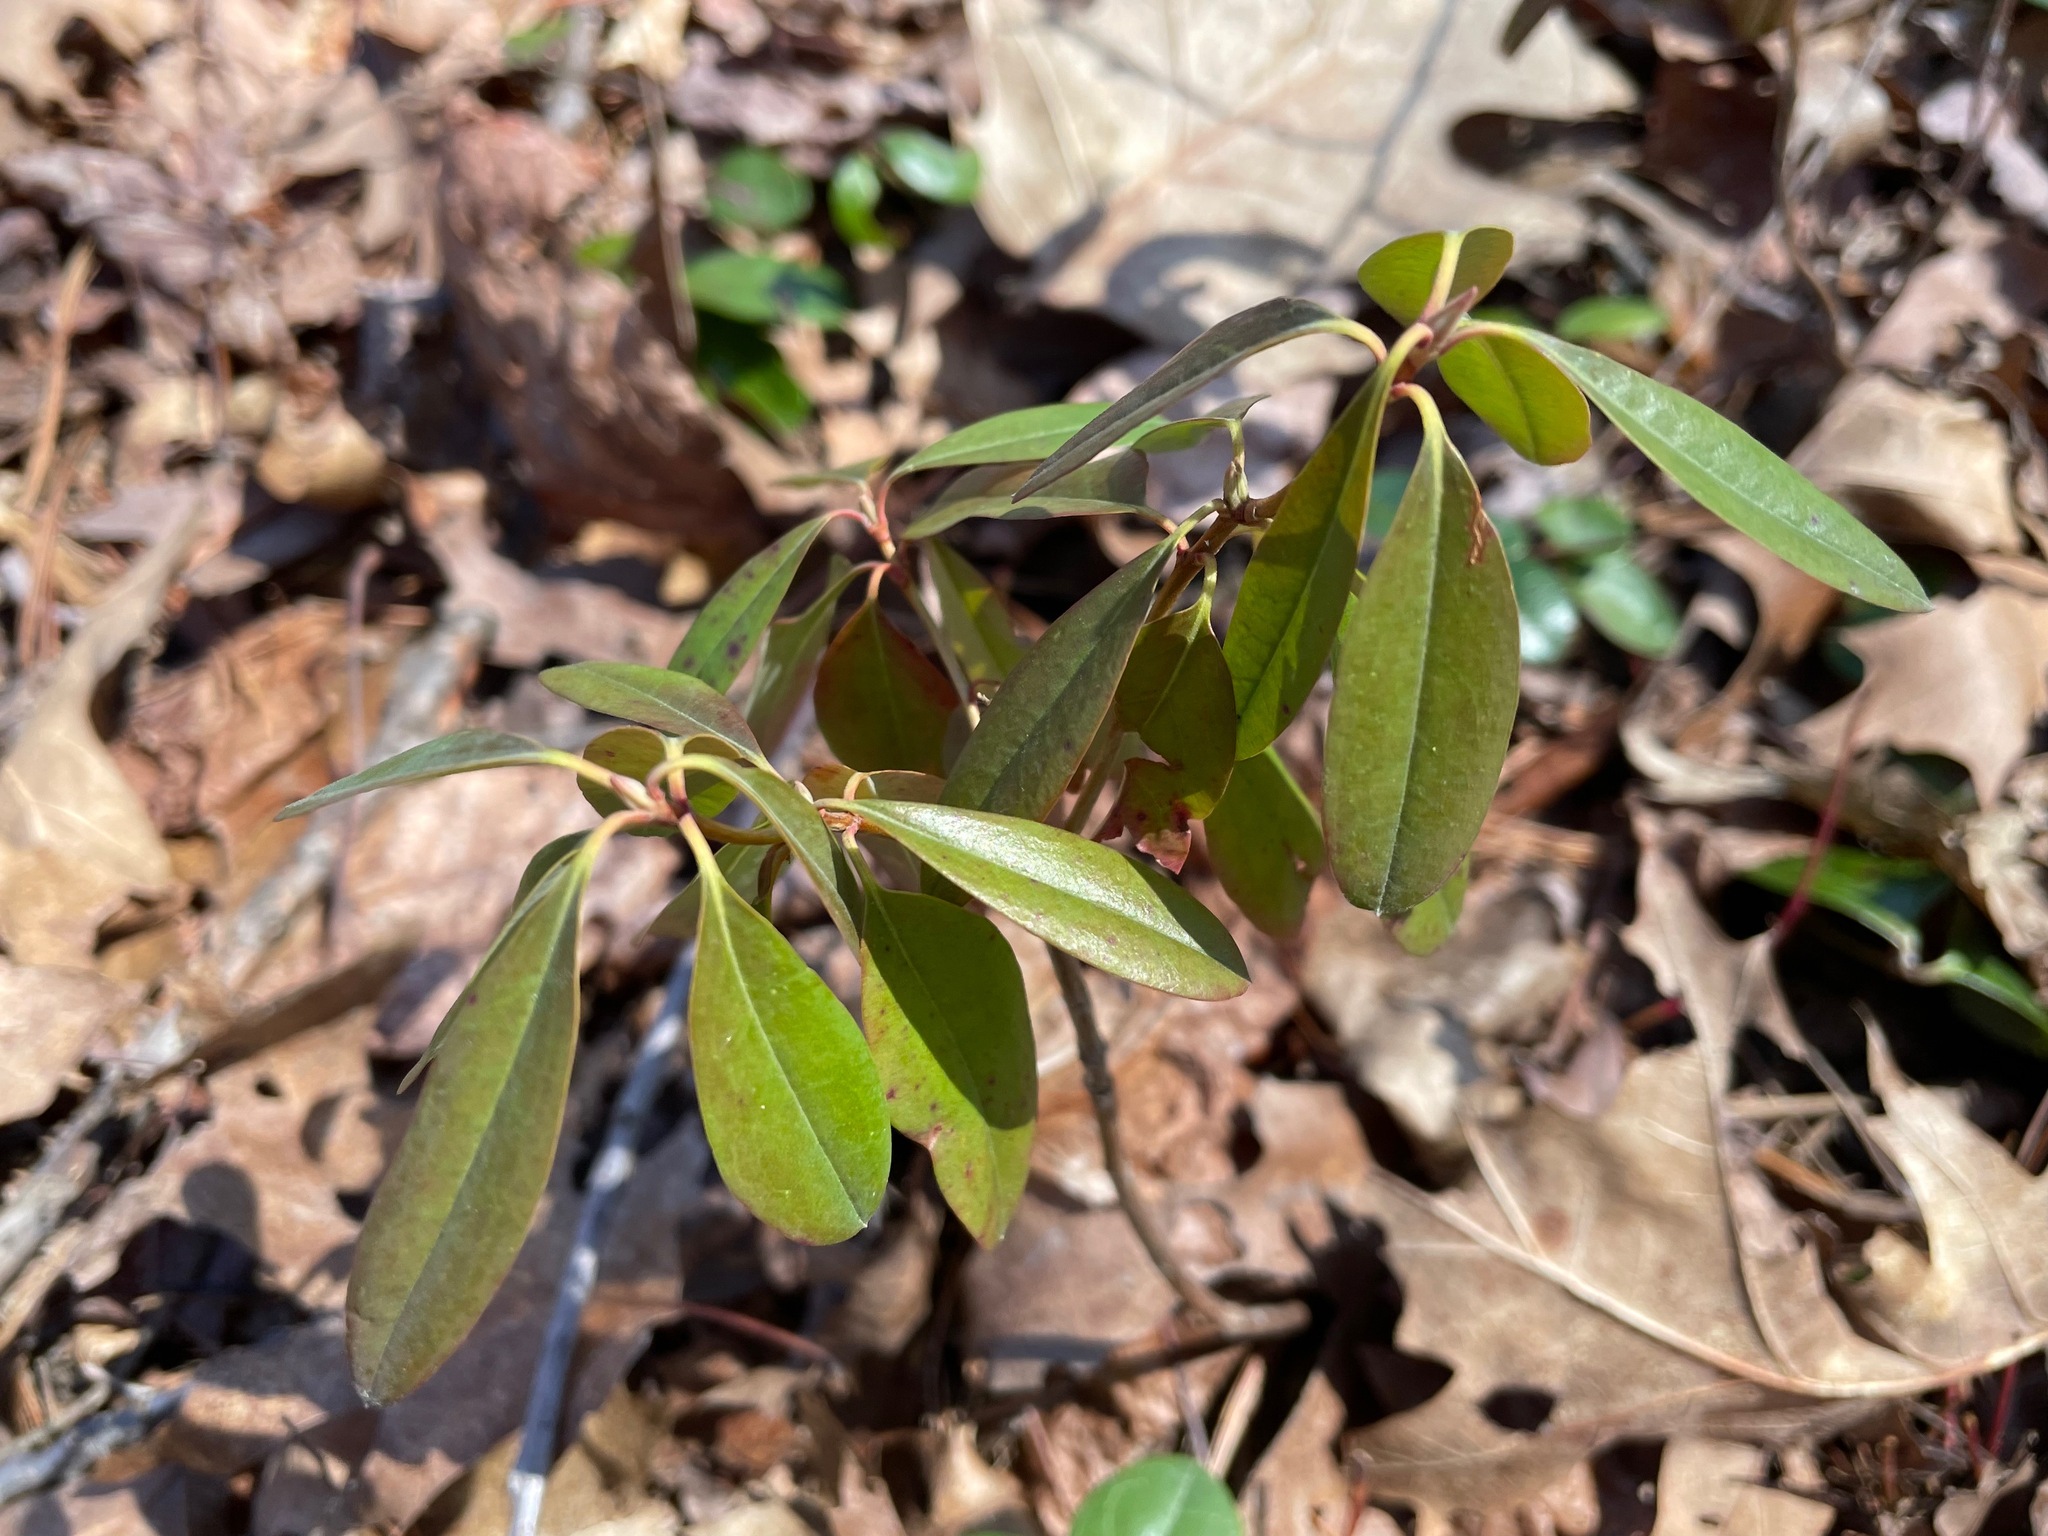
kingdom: Plantae
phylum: Tracheophyta
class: Magnoliopsida
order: Ericales
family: Ericaceae
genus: Kalmia
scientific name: Kalmia angustifolia
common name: Sheep-laurel
